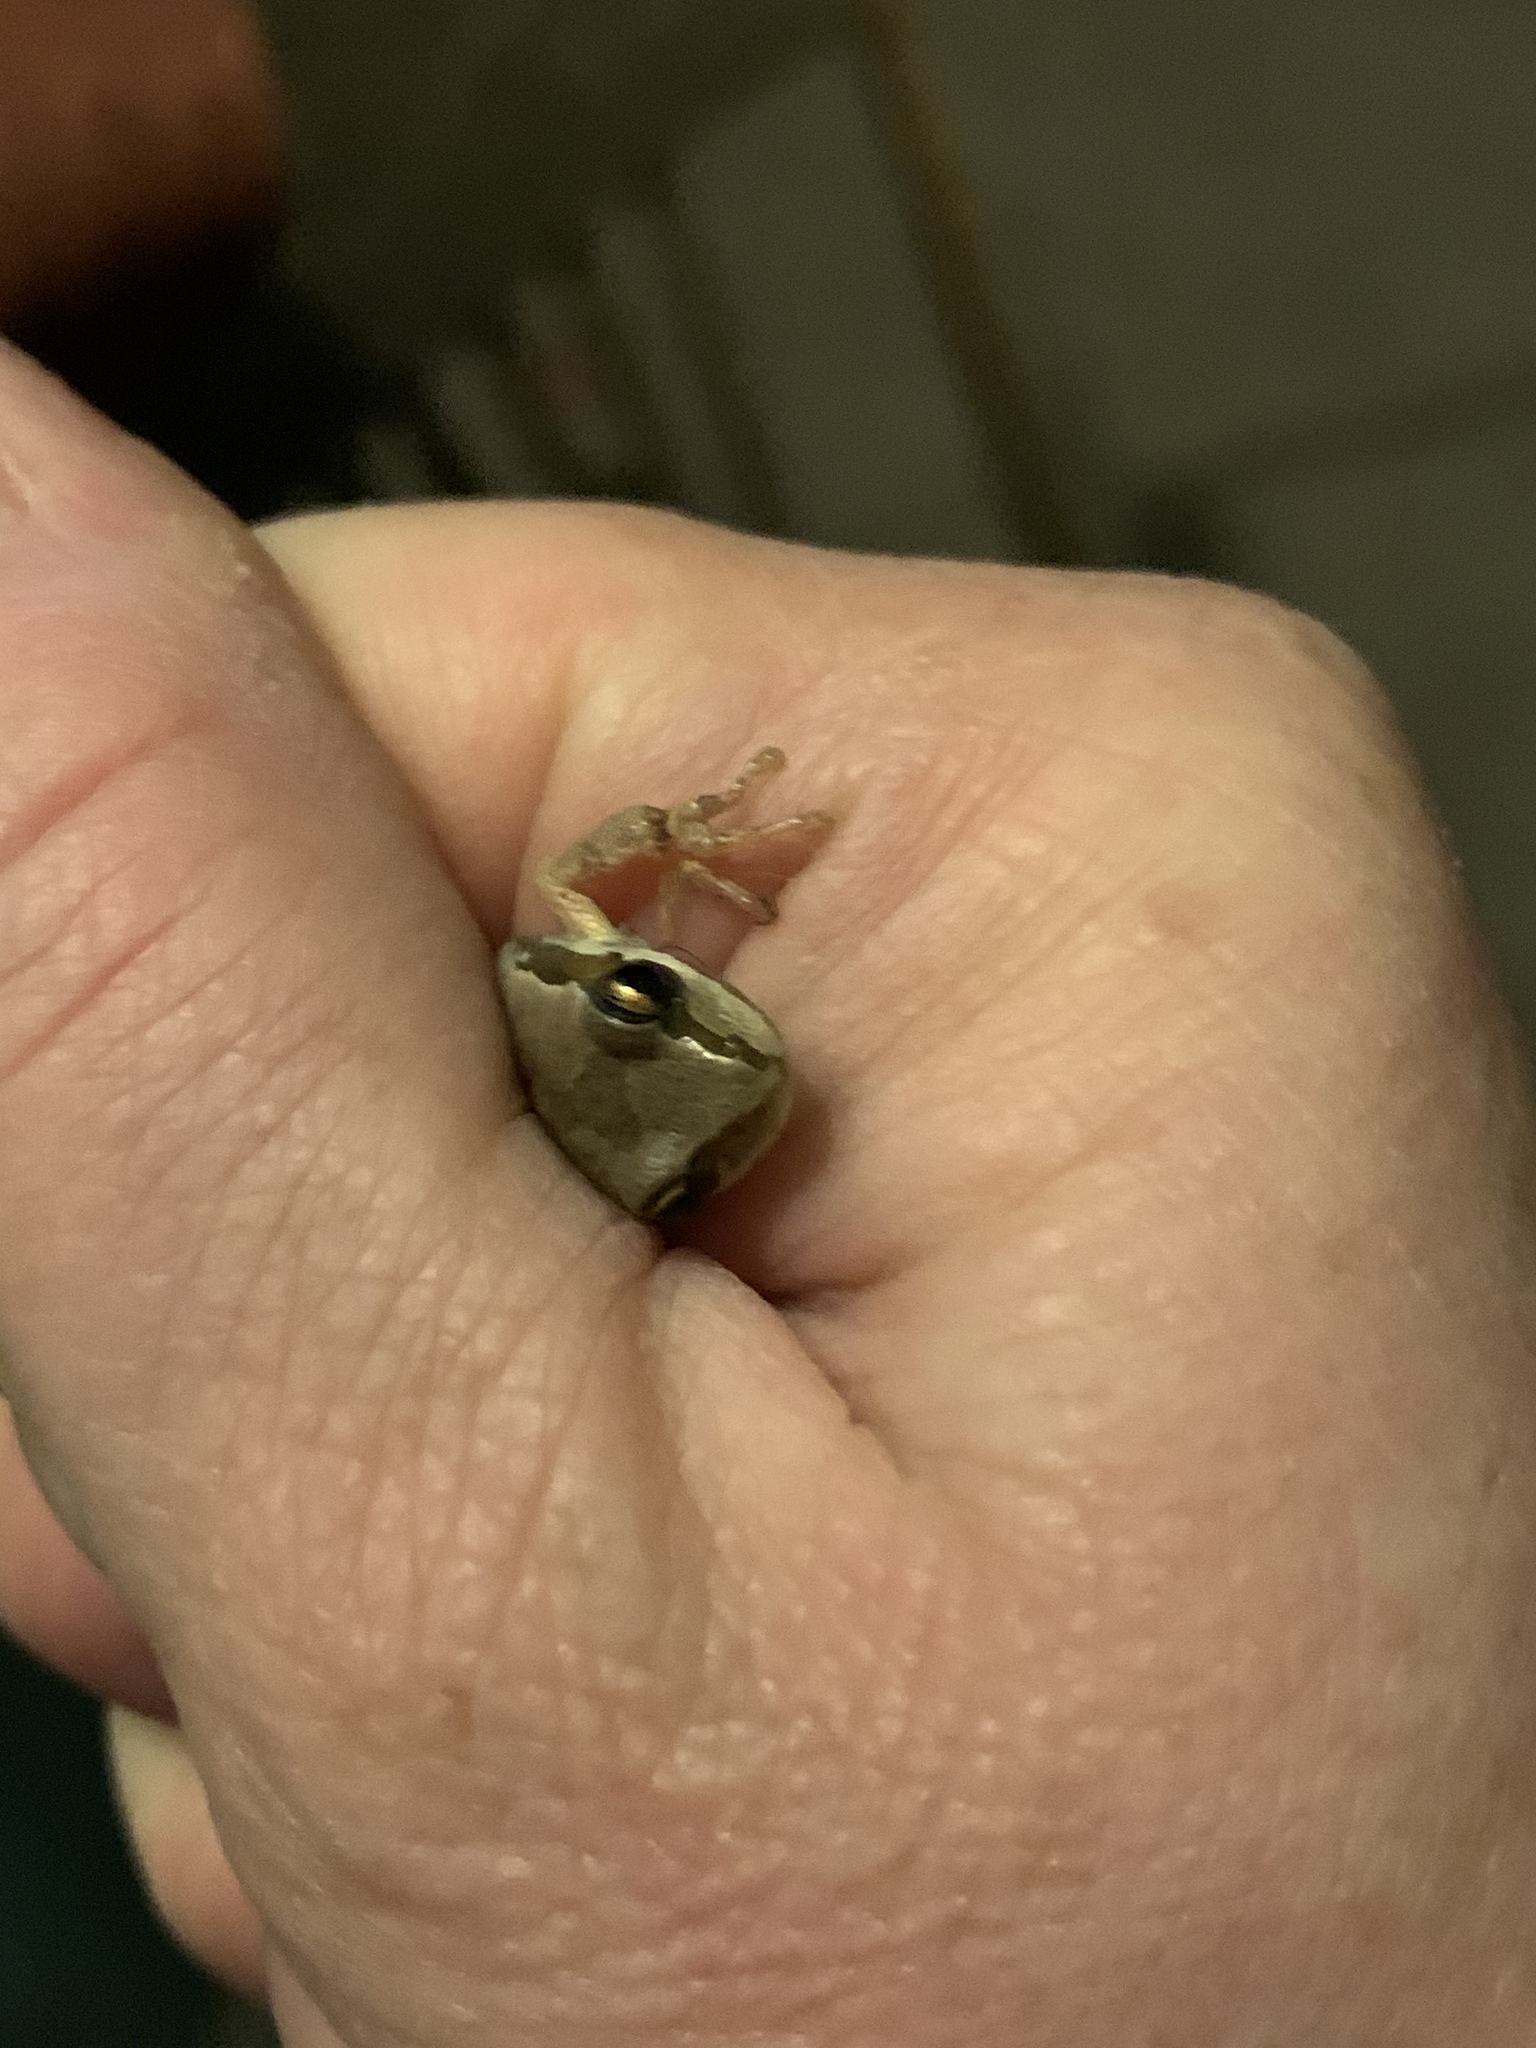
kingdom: Animalia
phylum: Chordata
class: Amphibia
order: Anura
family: Hylidae
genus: Pseudacris
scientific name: Pseudacris regilla
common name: Pacific chorus frog
